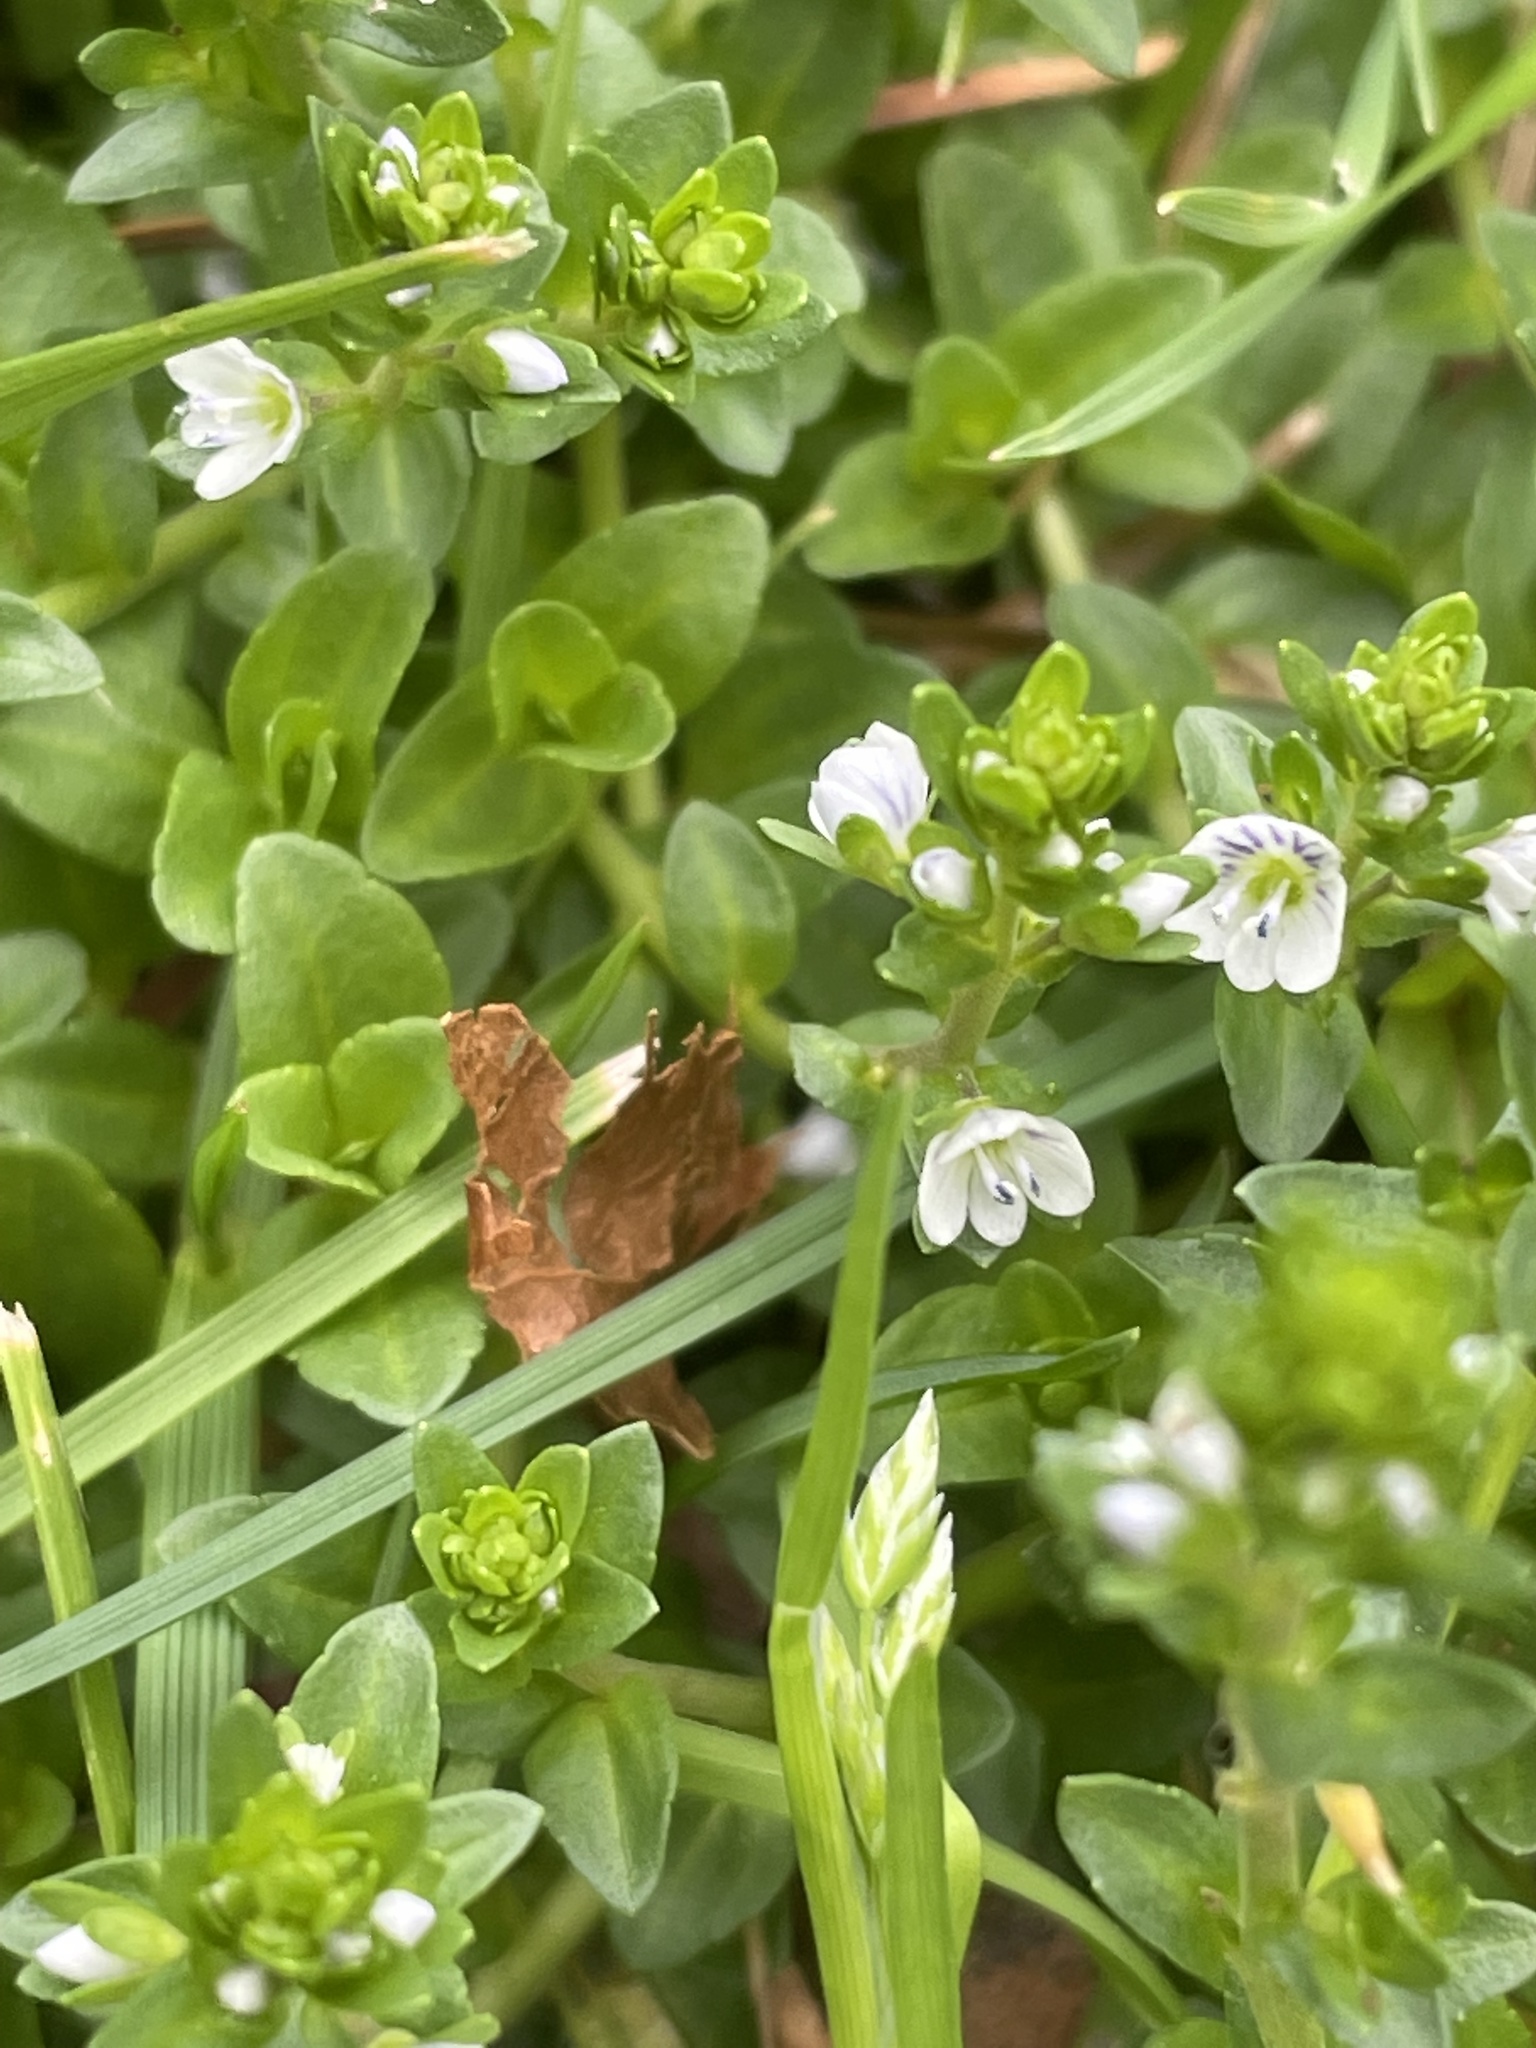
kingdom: Plantae
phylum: Tracheophyta
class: Magnoliopsida
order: Lamiales
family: Plantaginaceae
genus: Veronica
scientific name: Veronica serpyllifolia
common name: Thyme-leaved speedwell
